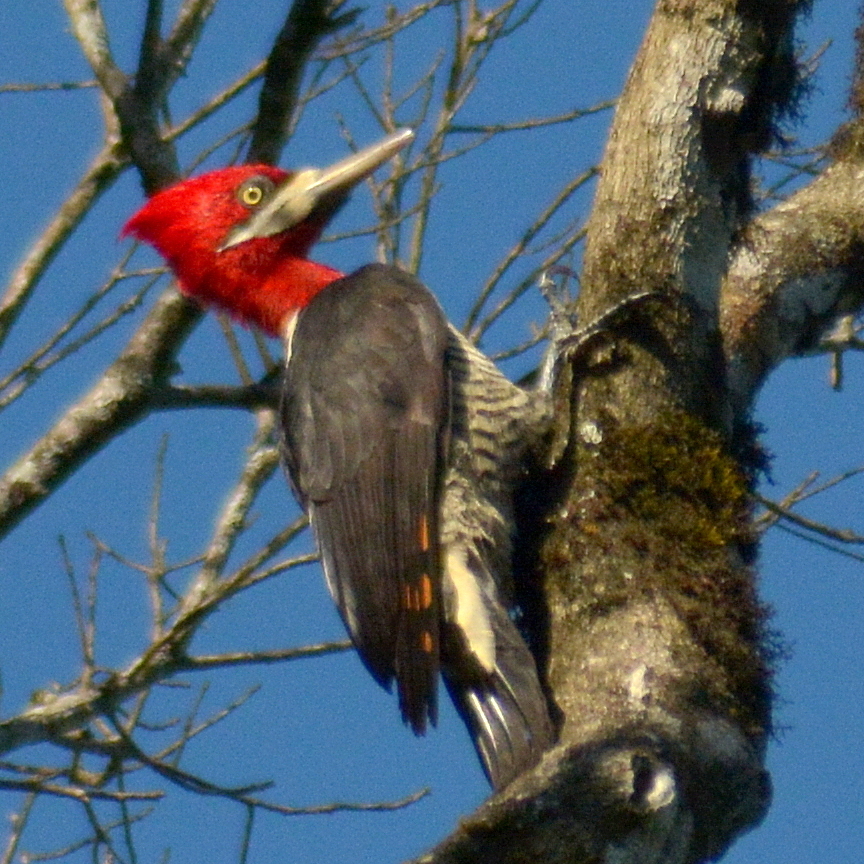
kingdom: Animalia
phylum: Chordata
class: Aves
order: Piciformes
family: Picidae
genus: Campephilus
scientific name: Campephilus robustus
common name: Robust woodpecker
